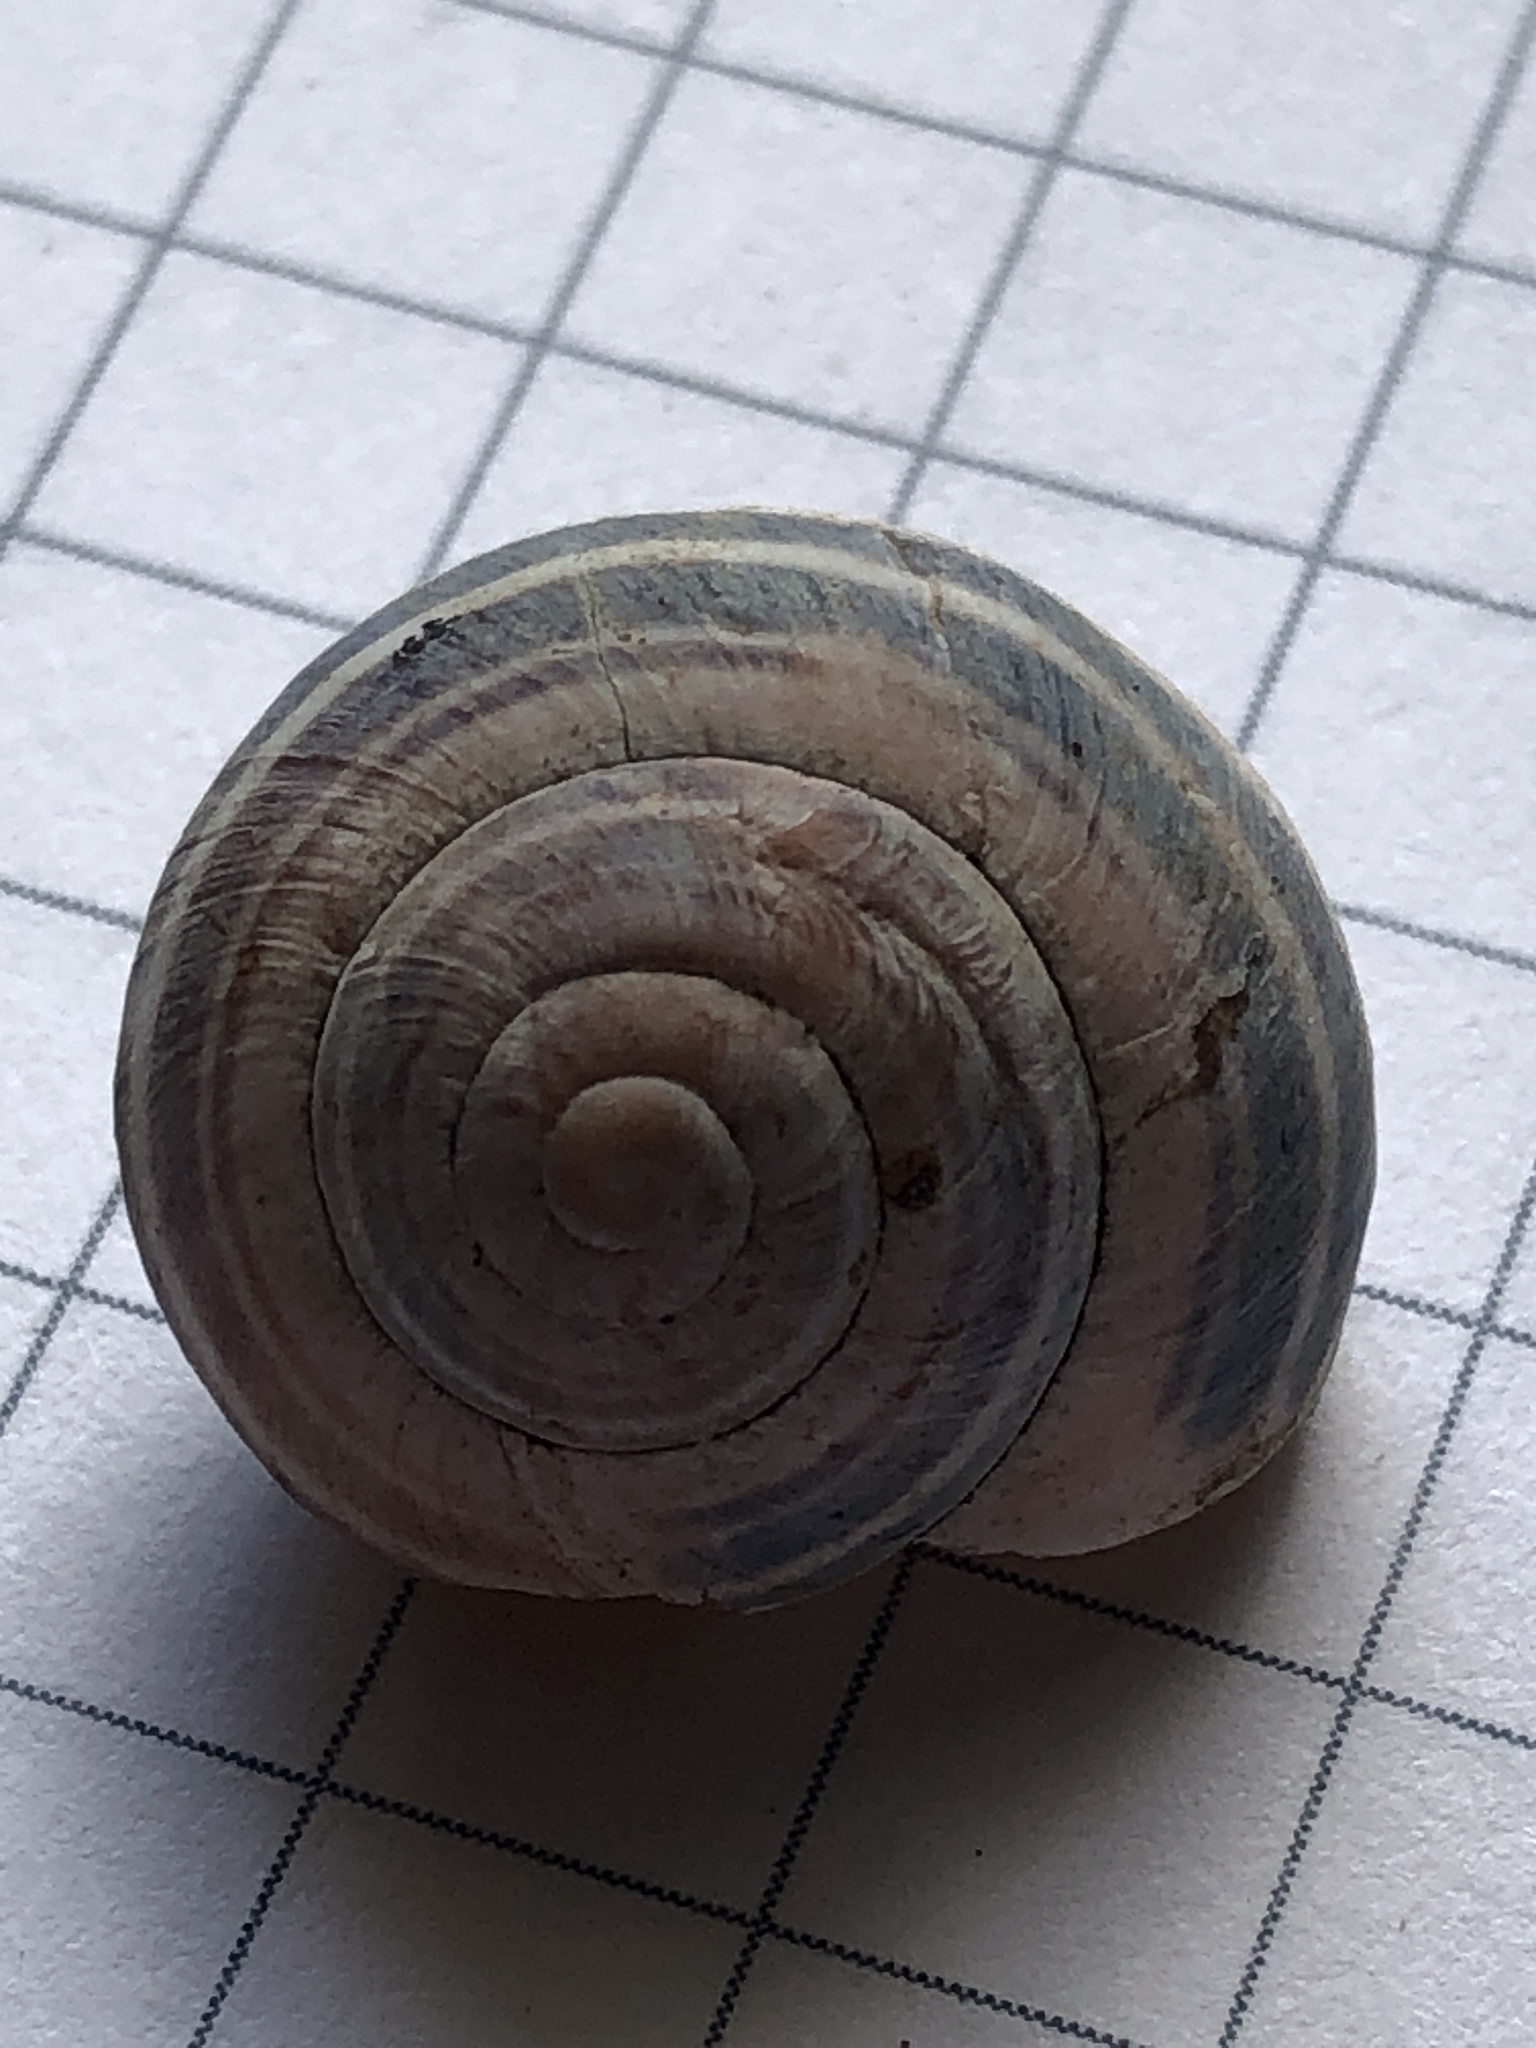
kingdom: Animalia
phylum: Mollusca
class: Gastropoda
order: Stylommatophora
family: Helicidae
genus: Cepaea
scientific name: Cepaea nemoralis
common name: Grovesnail
